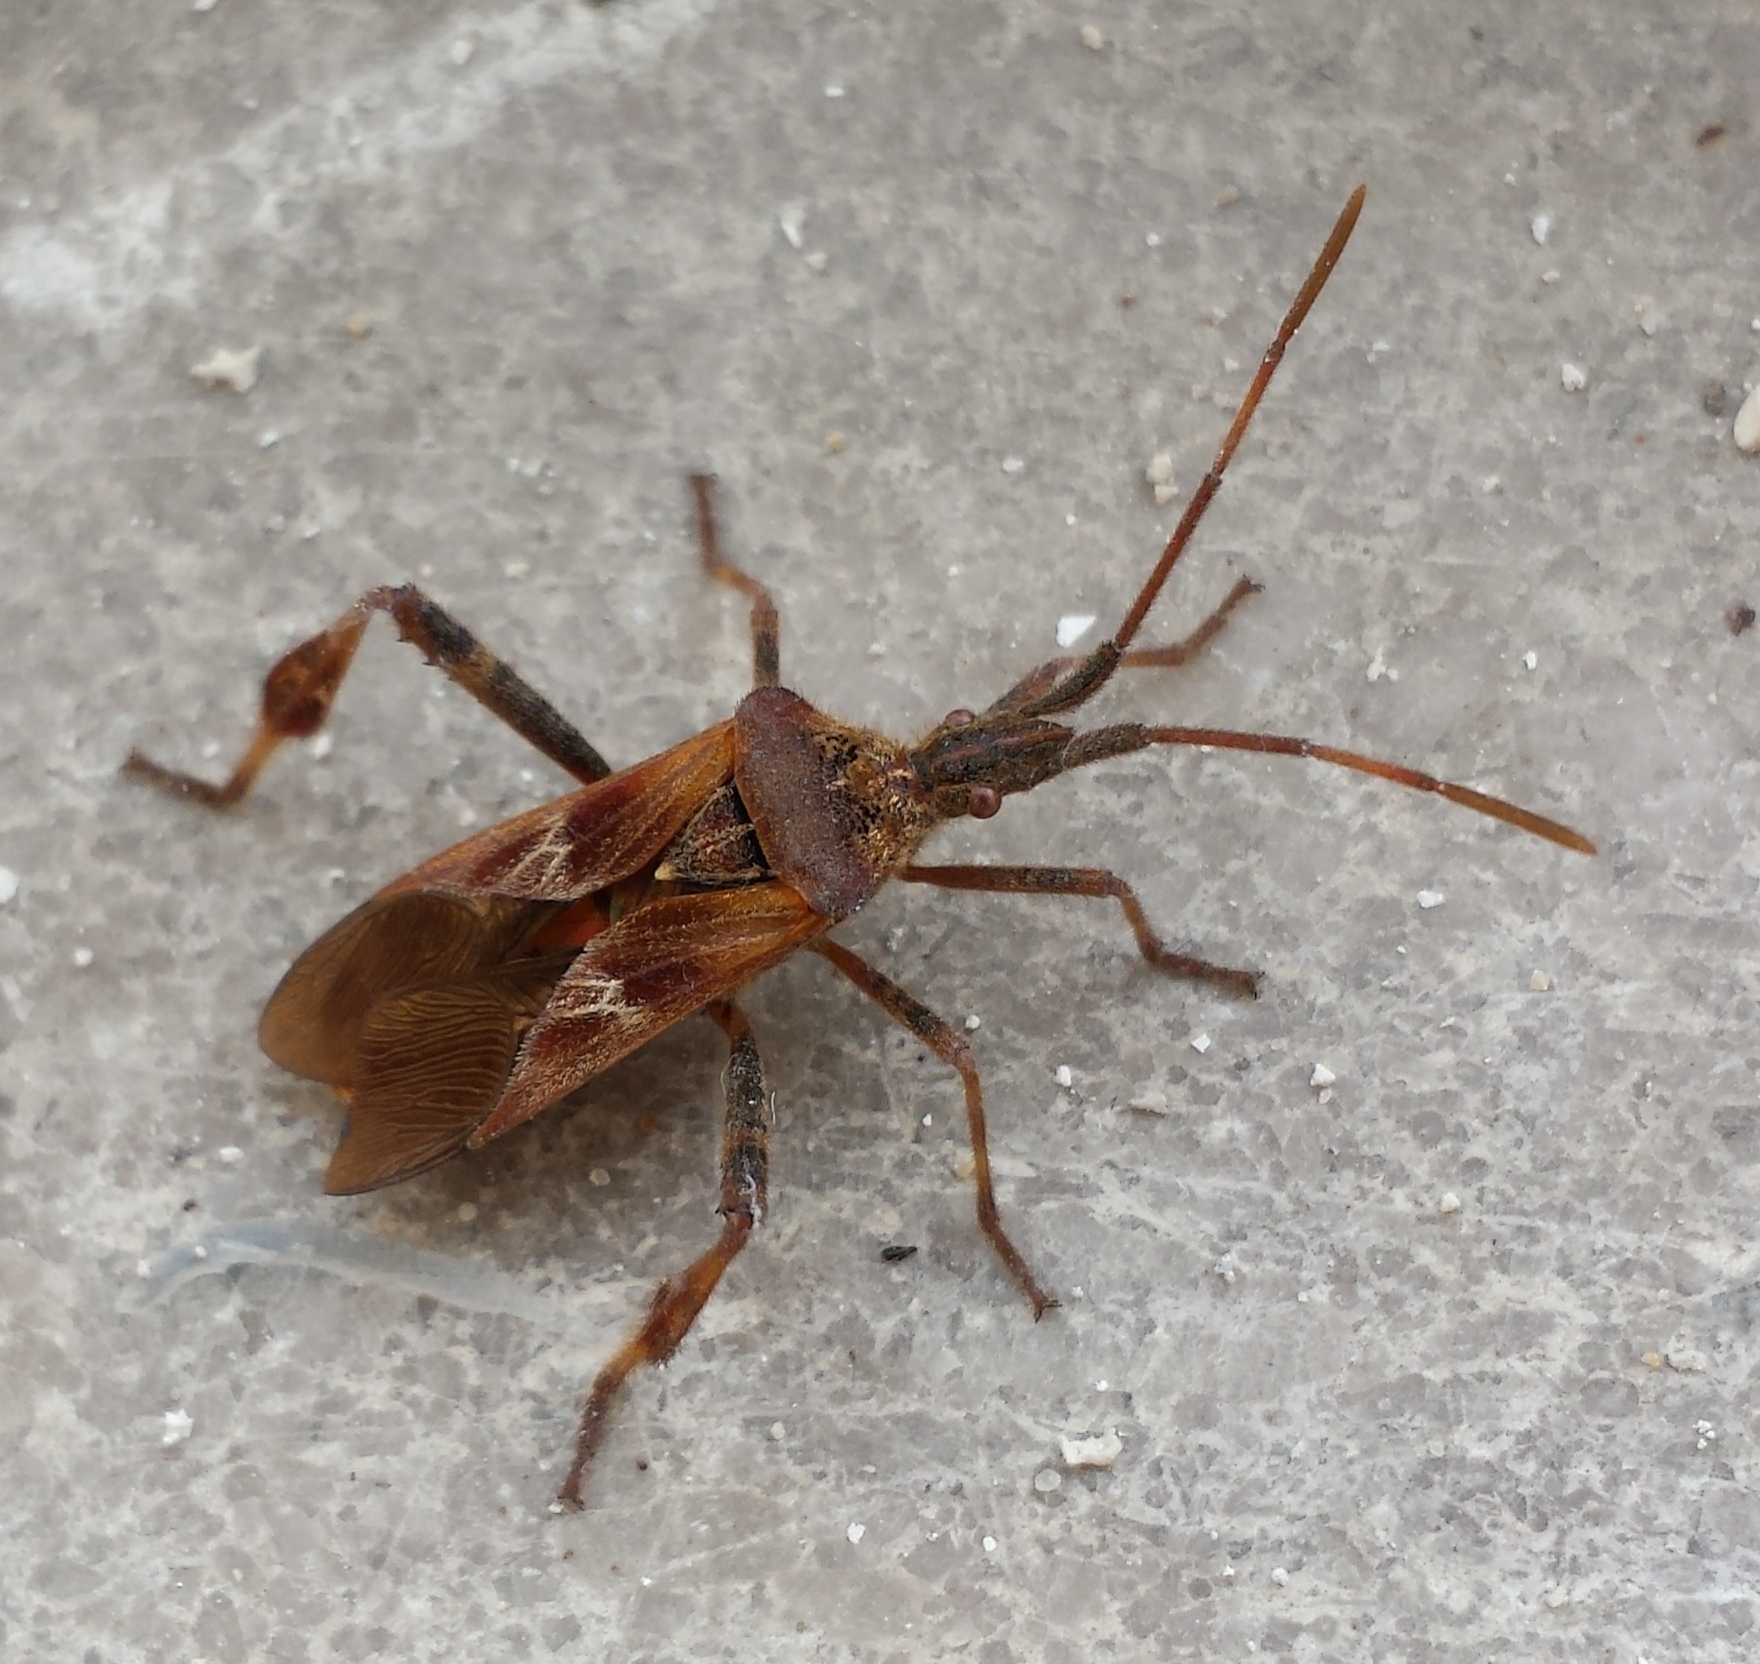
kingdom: Animalia
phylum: Arthropoda
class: Insecta
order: Hemiptera
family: Coreidae
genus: Leptoglossus
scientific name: Leptoglossus occidentalis
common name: Western conifer-seed bug
